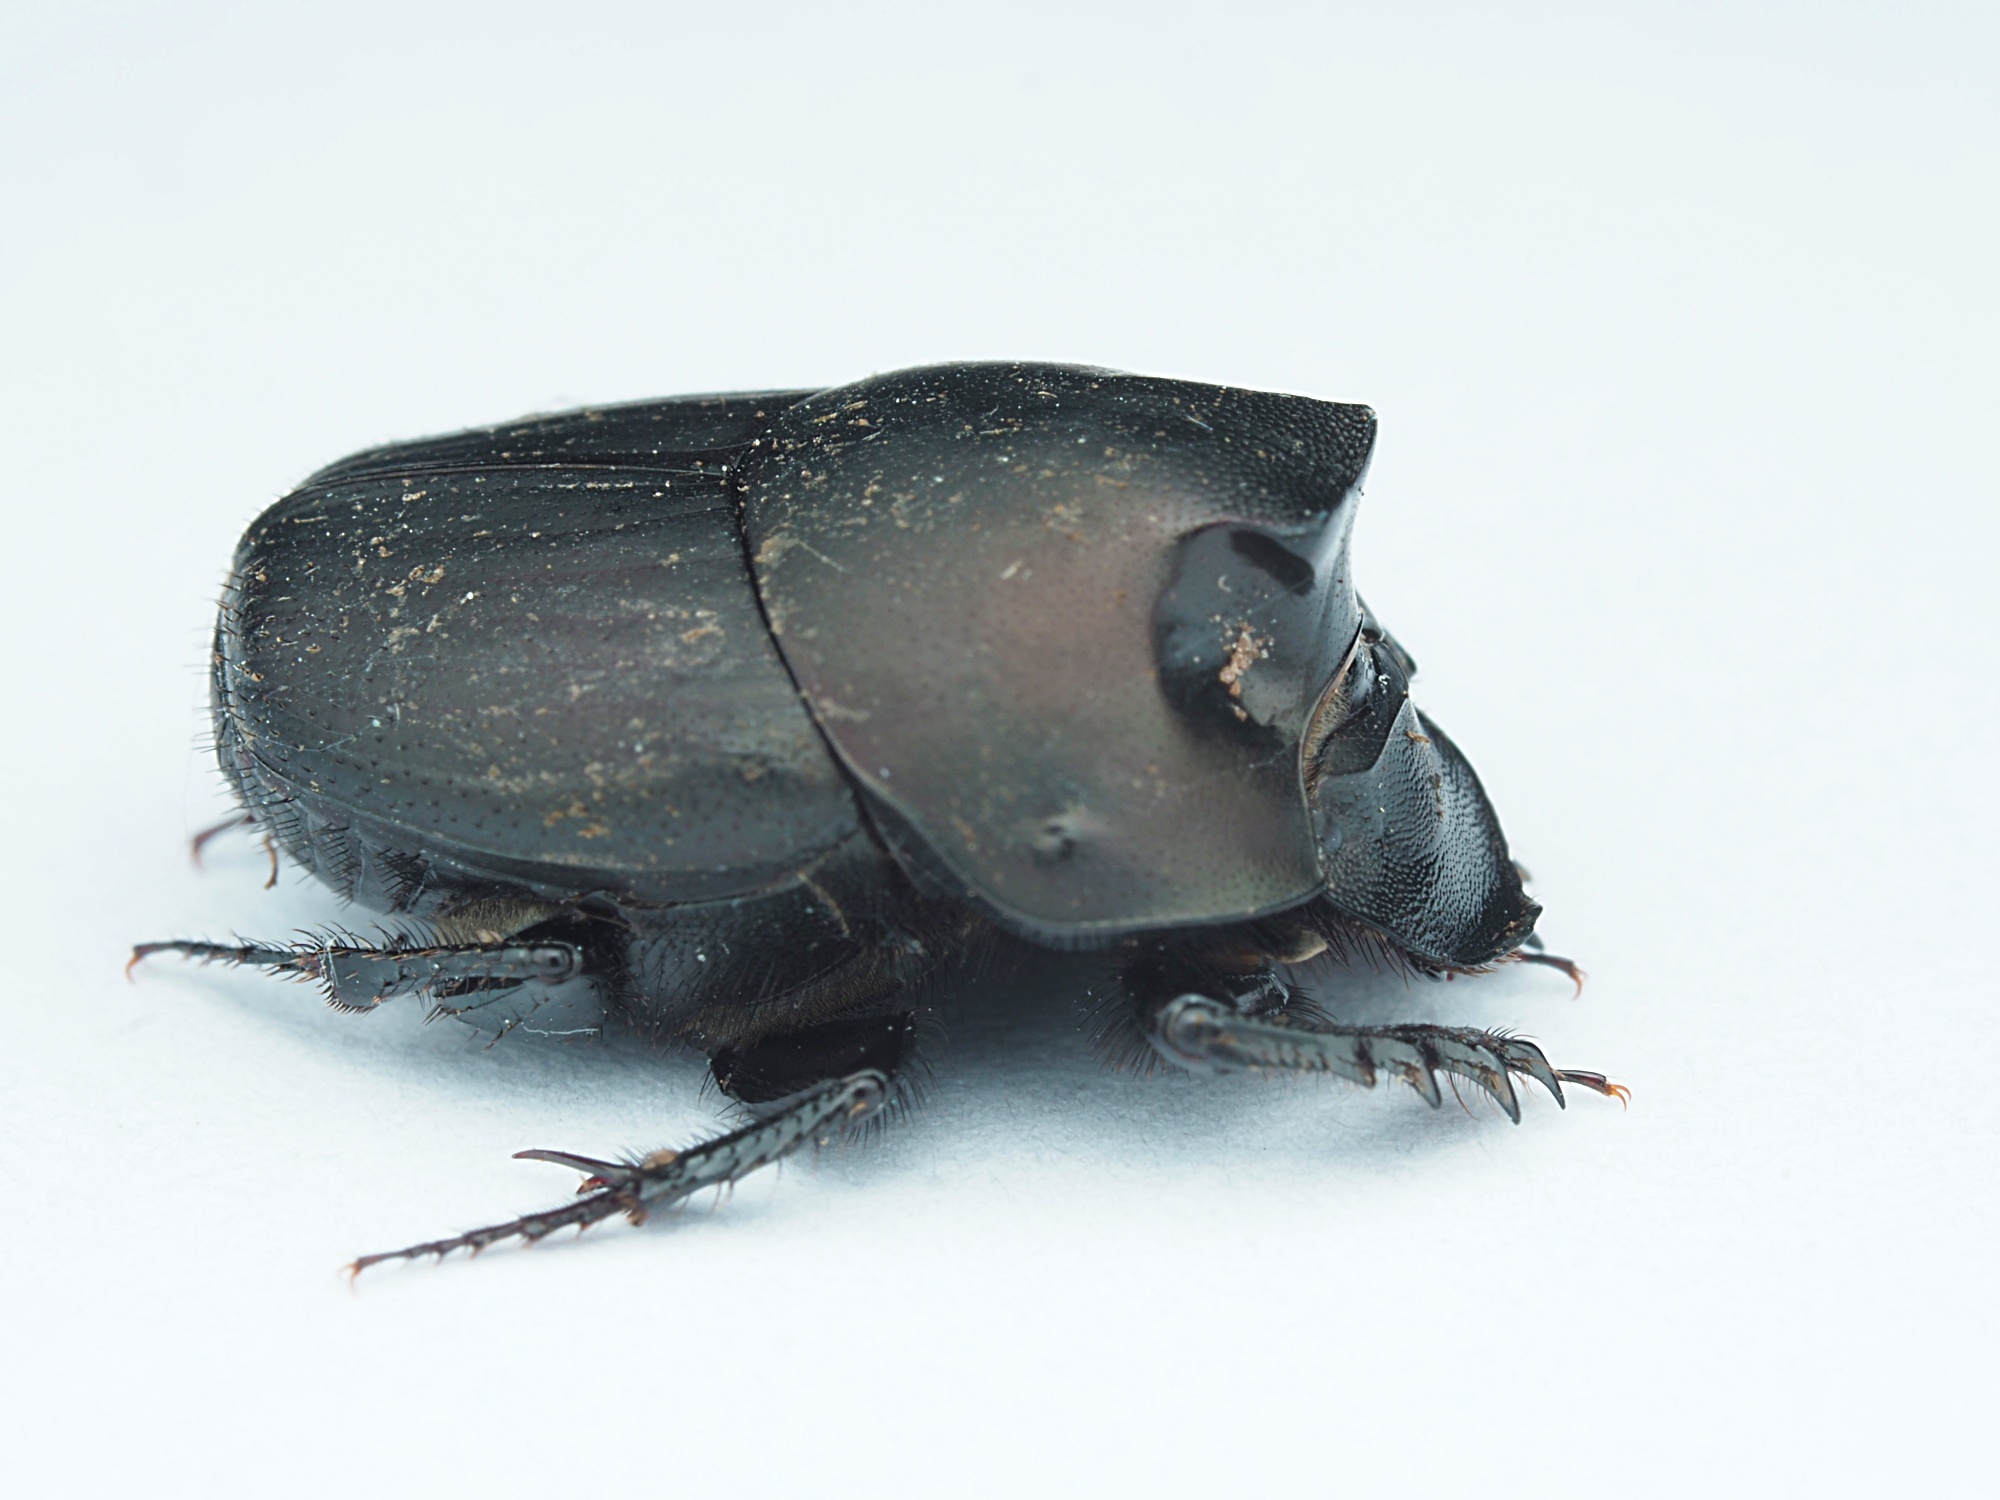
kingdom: Animalia
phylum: Arthropoda
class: Insecta
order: Coleoptera
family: Scarabaeidae
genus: Onthophagus
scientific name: Onthophagus binodis
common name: Humpbacked dung beetle
